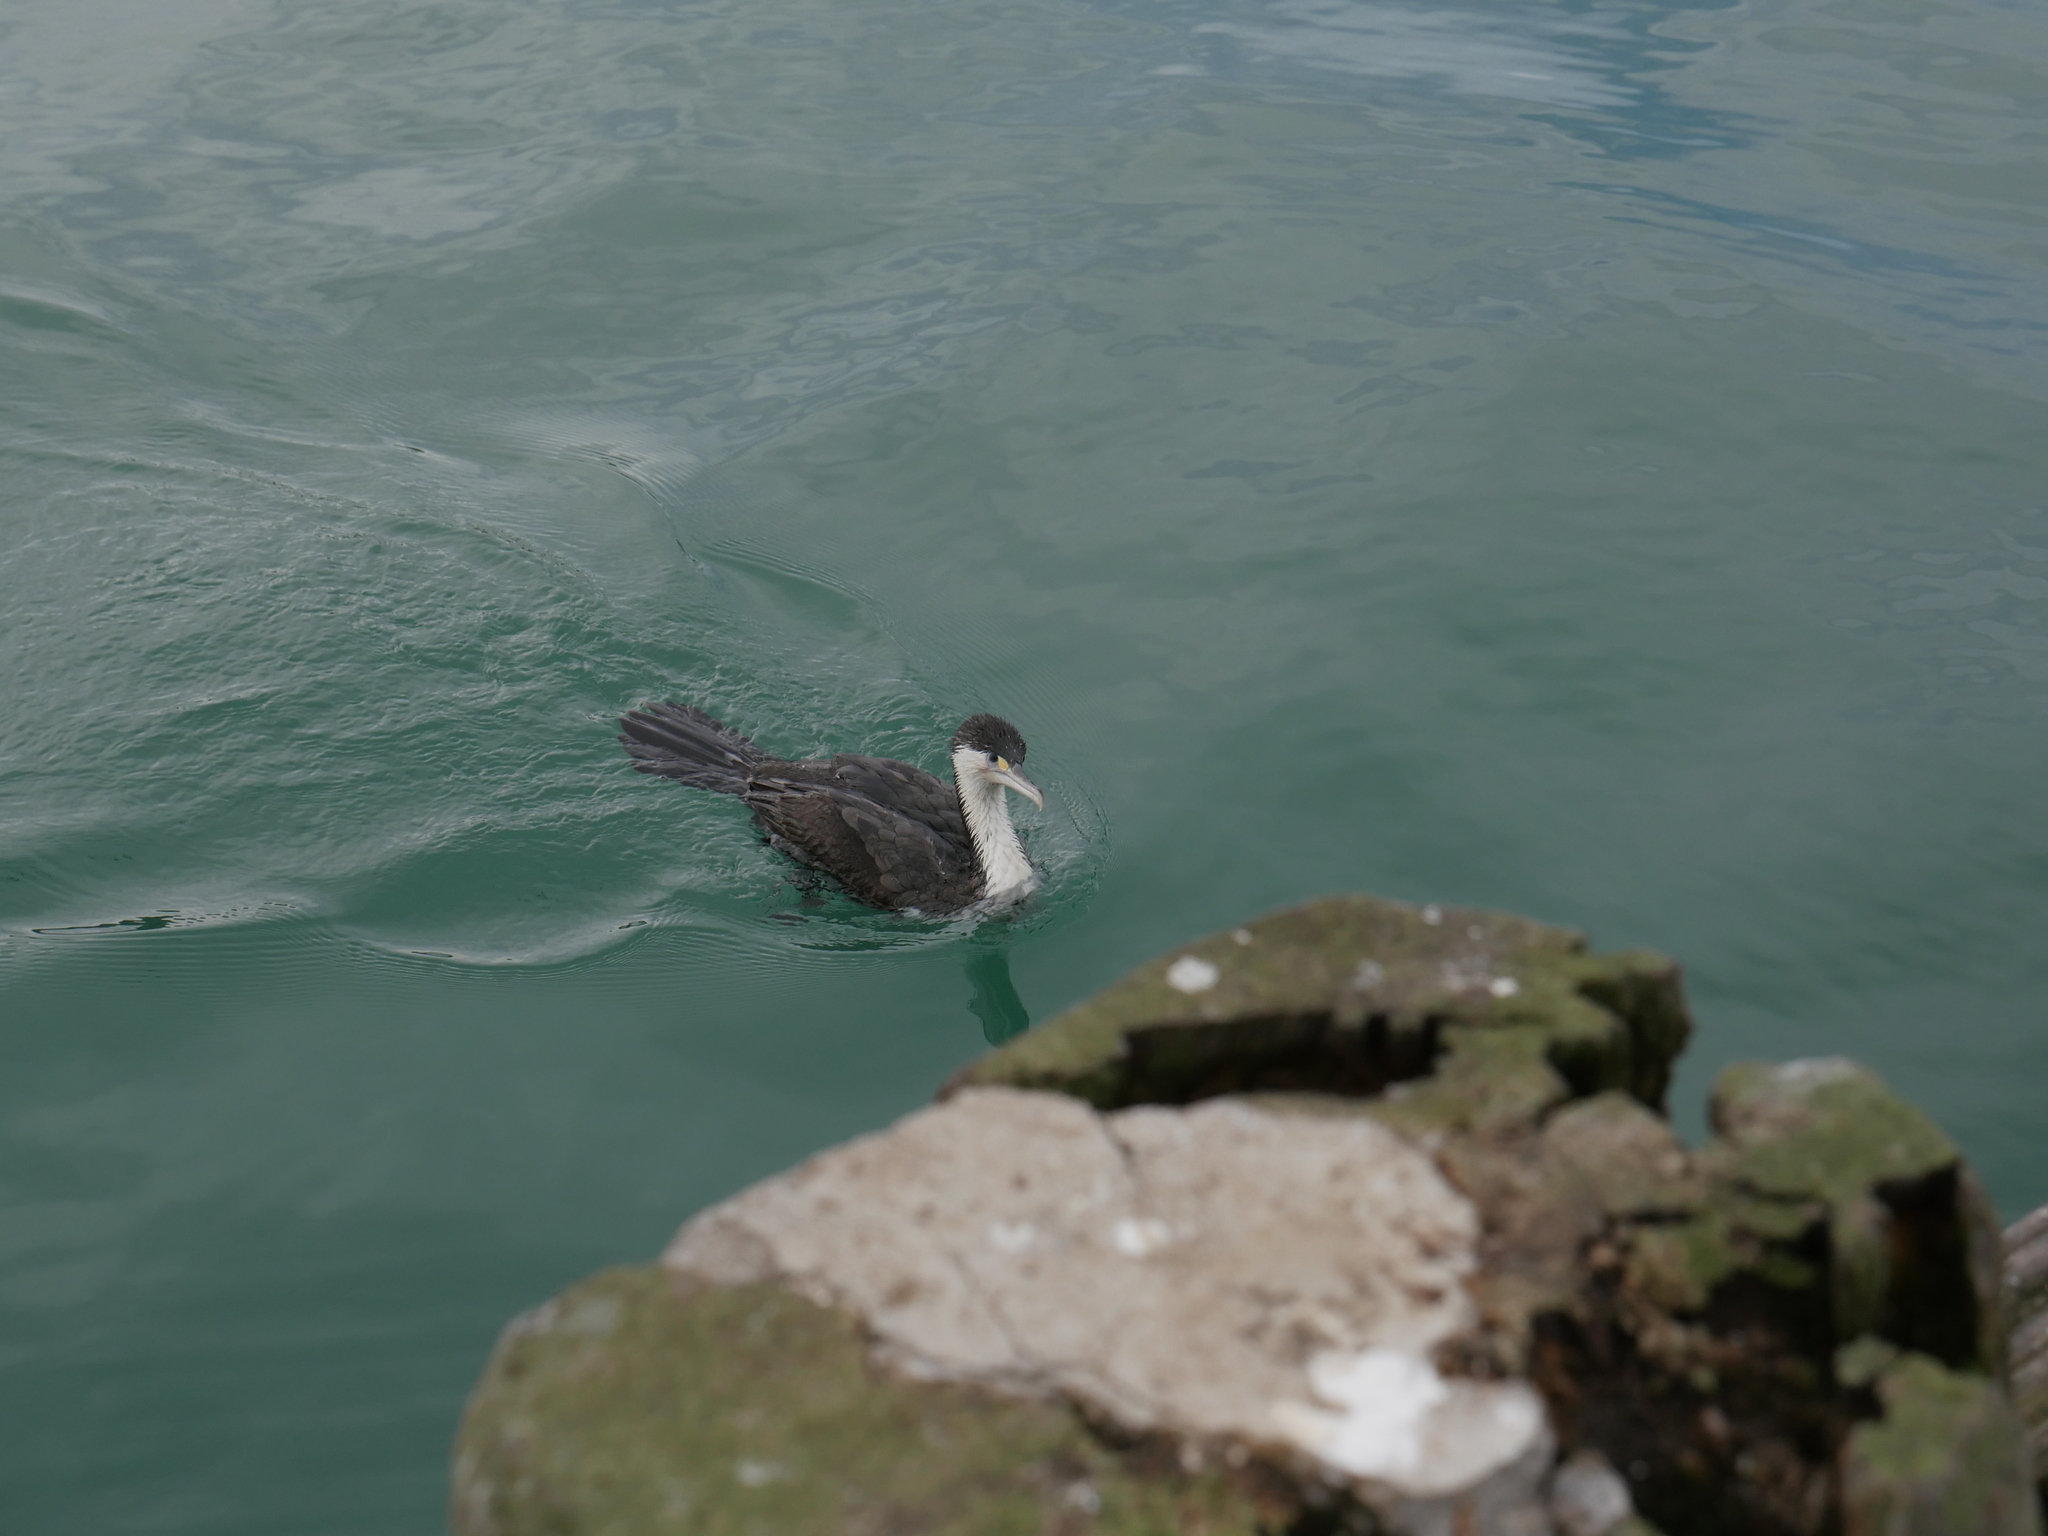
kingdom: Animalia
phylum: Chordata
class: Aves
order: Suliformes
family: Phalacrocoracidae
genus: Phalacrocorax
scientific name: Phalacrocorax varius
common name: Pied cormorant
